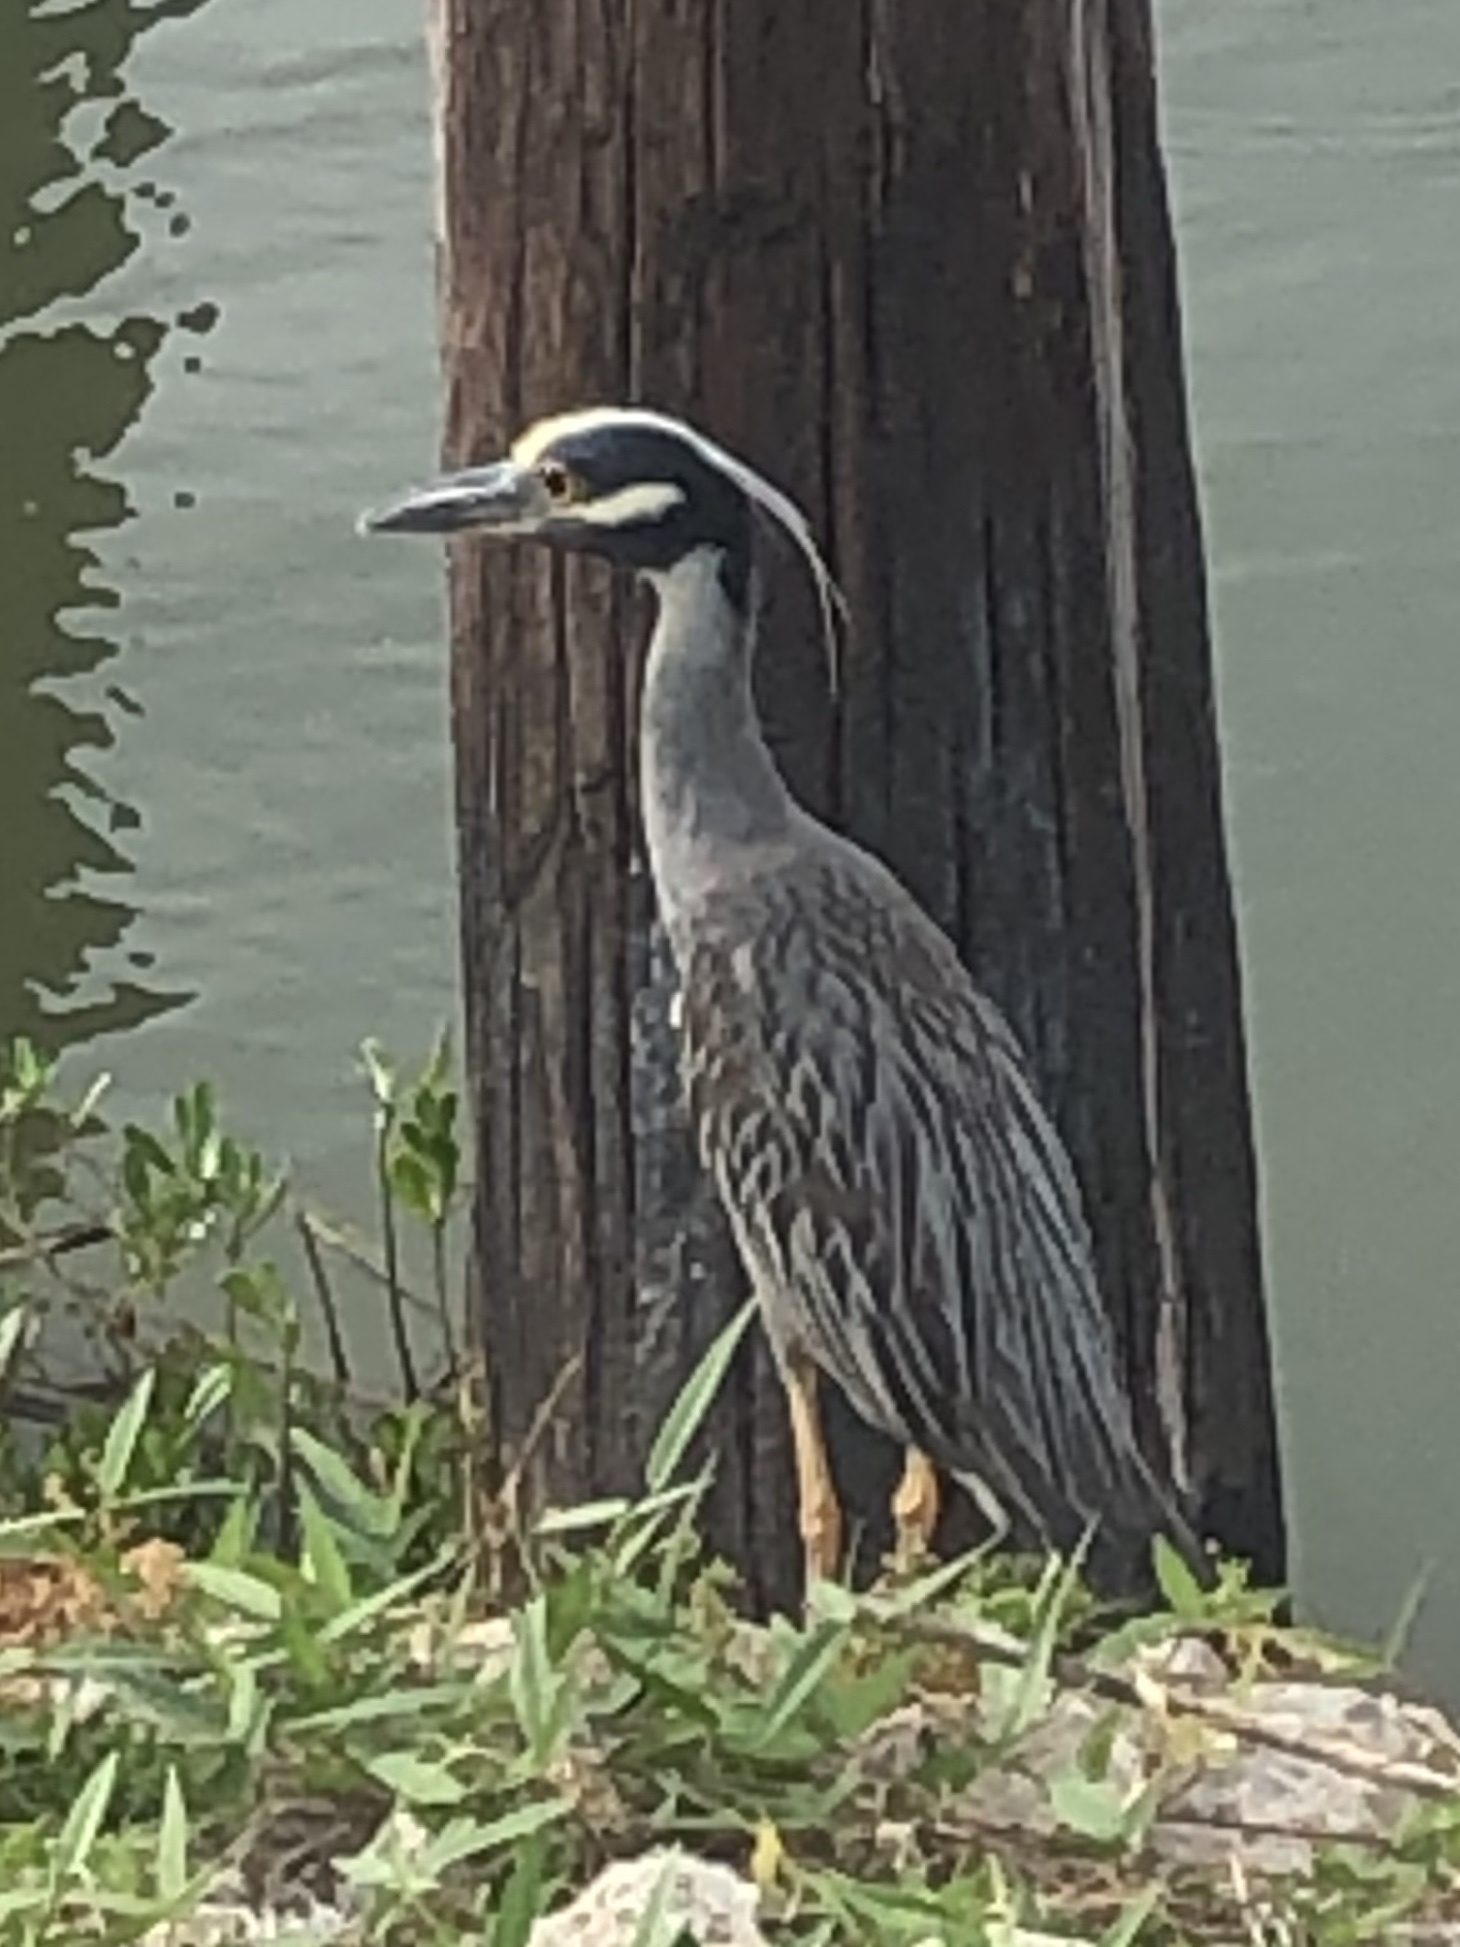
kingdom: Animalia
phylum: Chordata
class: Aves
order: Pelecaniformes
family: Ardeidae
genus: Nyctanassa
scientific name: Nyctanassa violacea
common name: Yellow-crowned night heron
